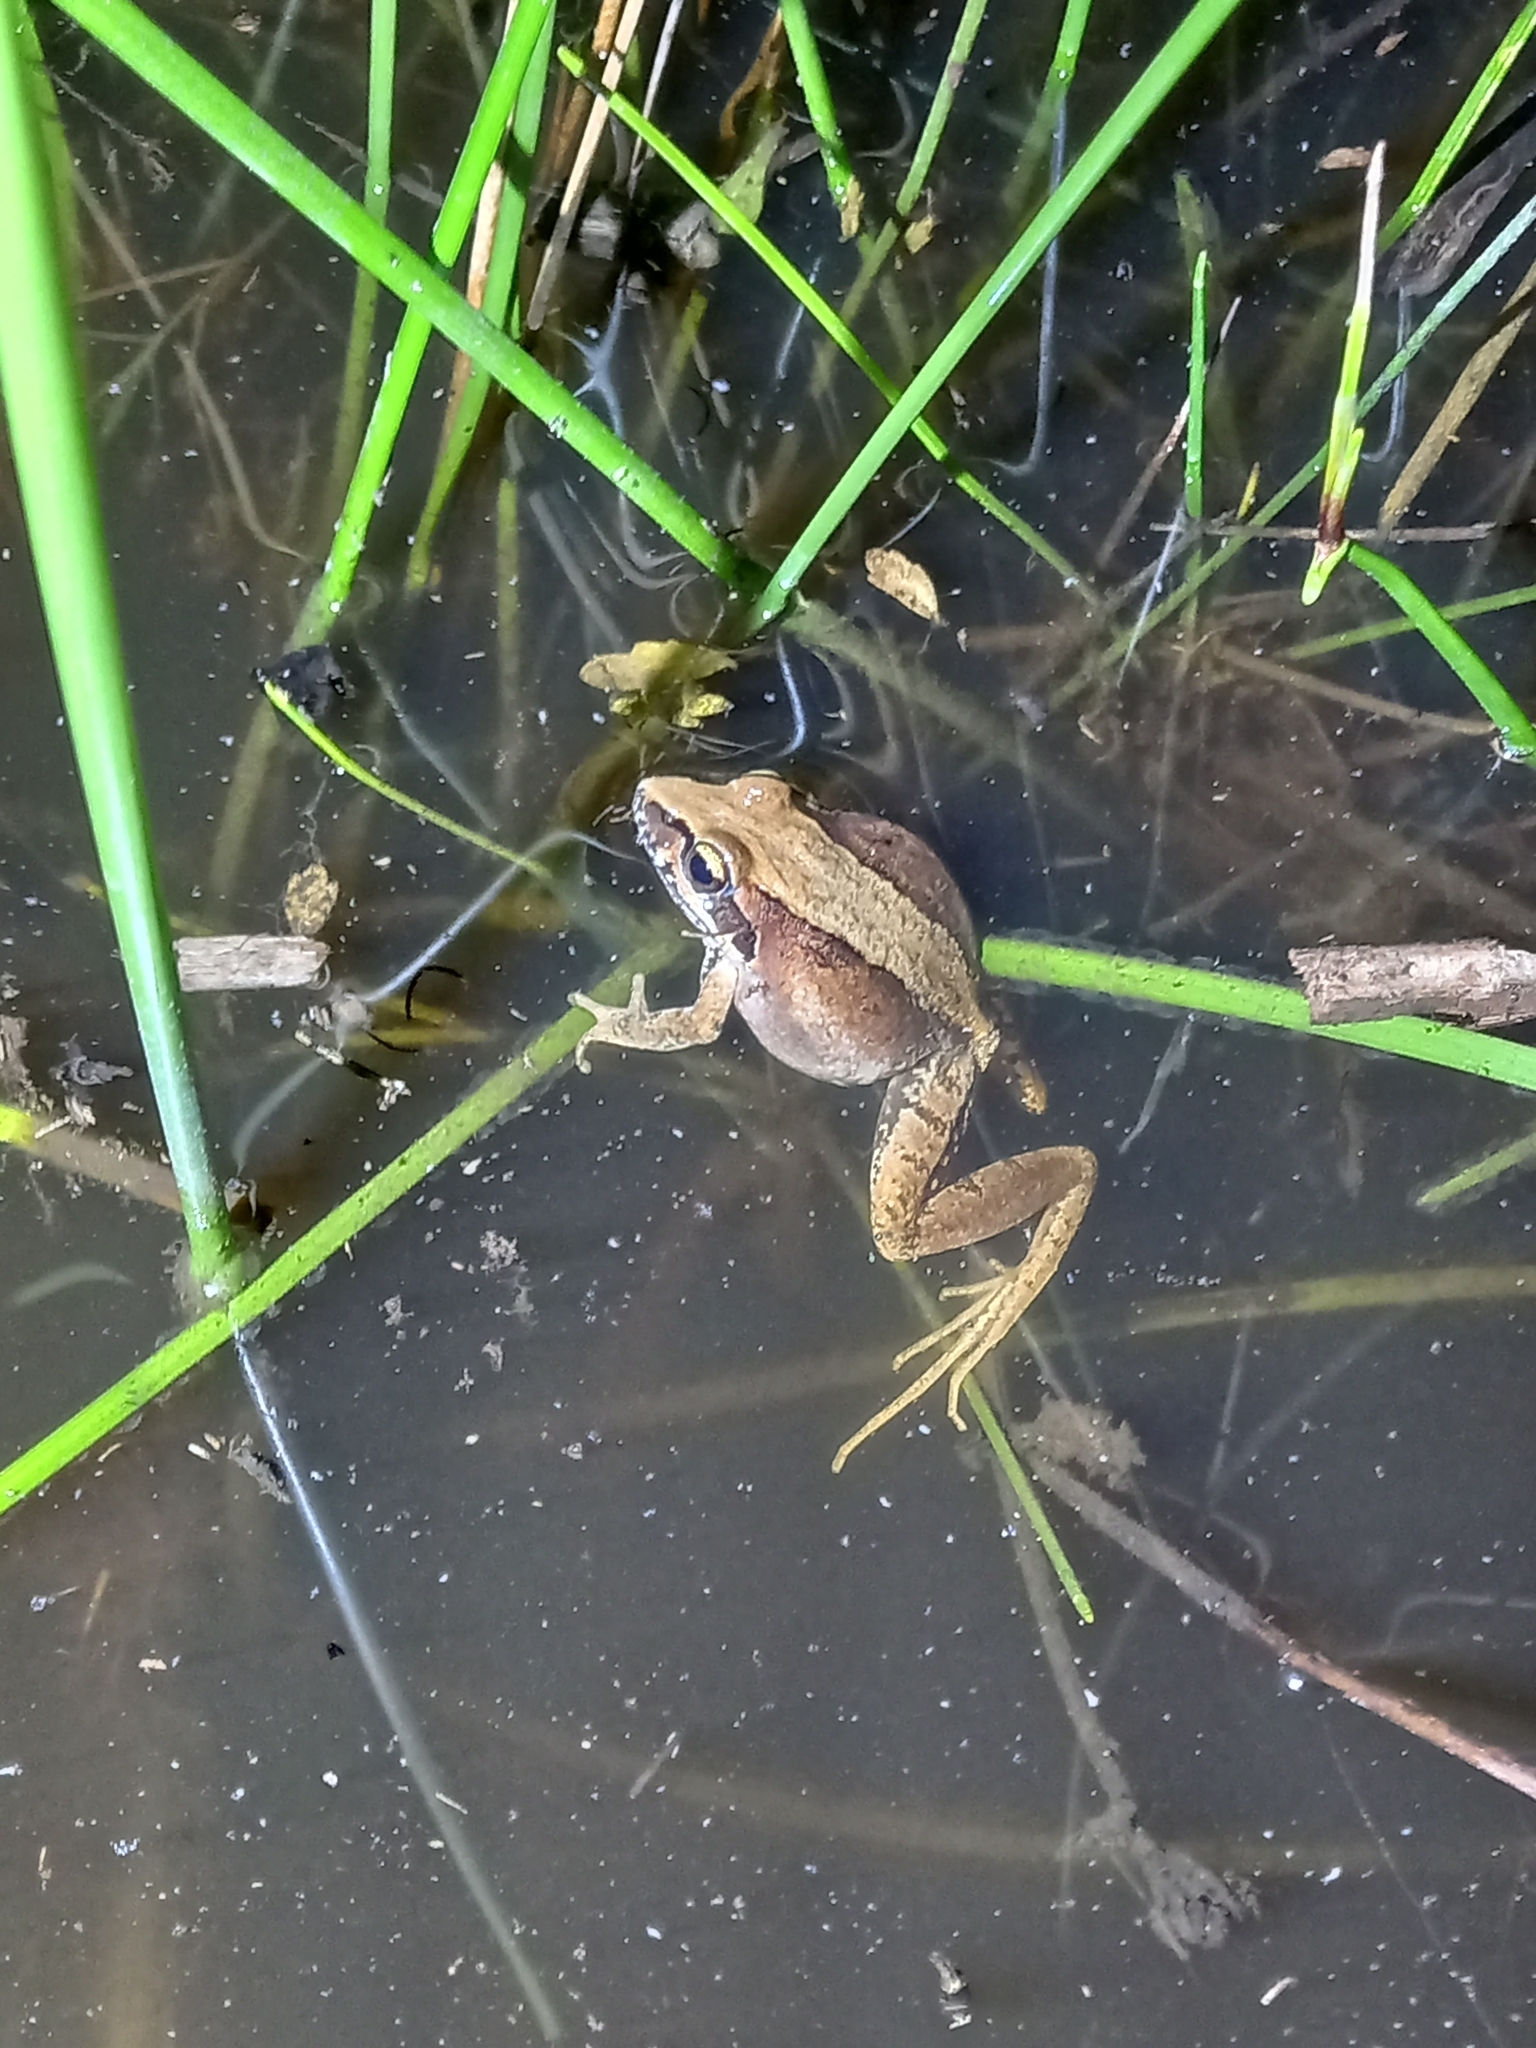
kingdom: Animalia
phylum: Chordata
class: Amphibia
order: Anura
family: Pyxicephalidae
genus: Strongylopus
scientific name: Strongylopus grayii
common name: Gray's stream frog
